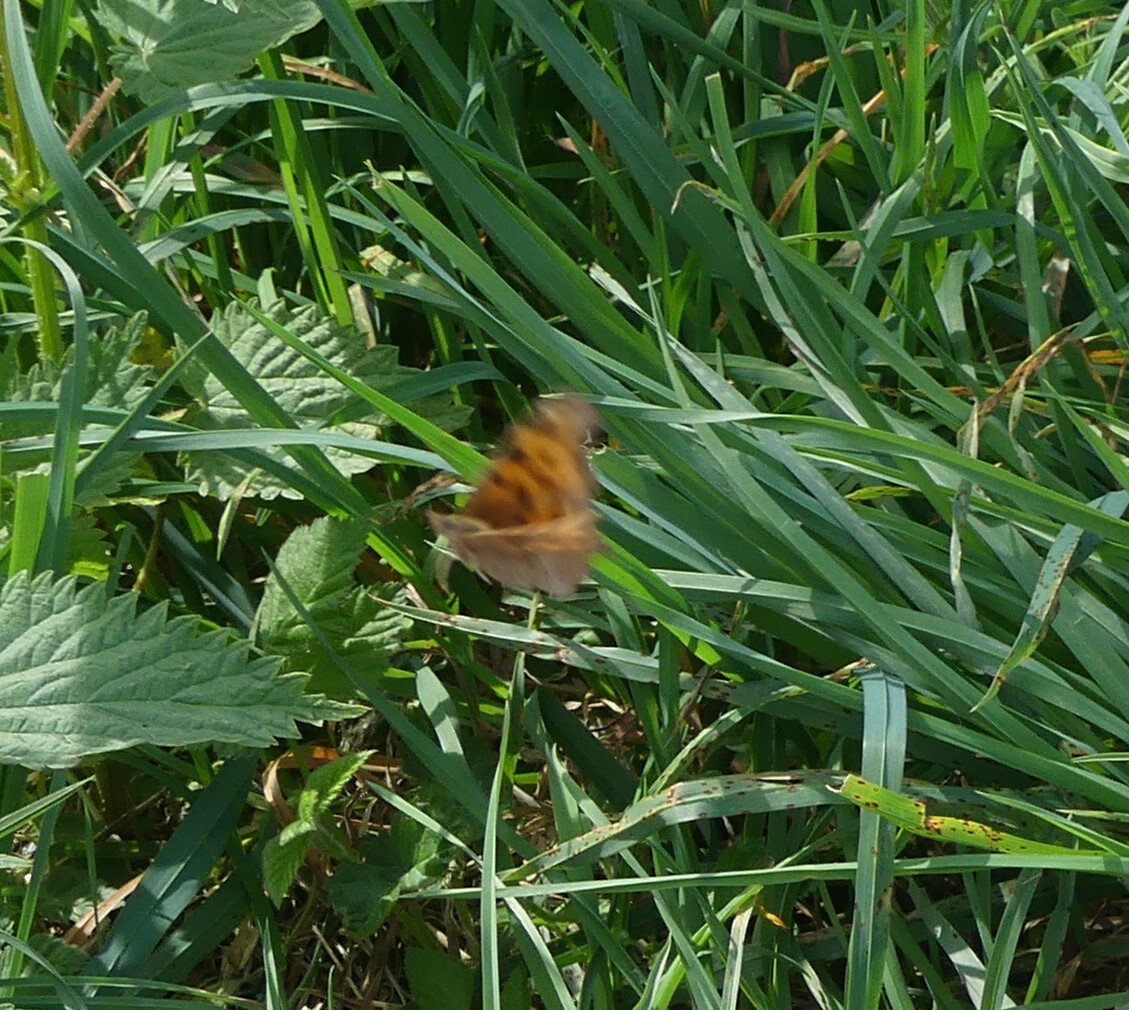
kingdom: Animalia
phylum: Arthropoda
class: Insecta
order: Lepidoptera
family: Nymphalidae
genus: Polygonia
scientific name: Polygonia satyrus
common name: Satyr angle wing
